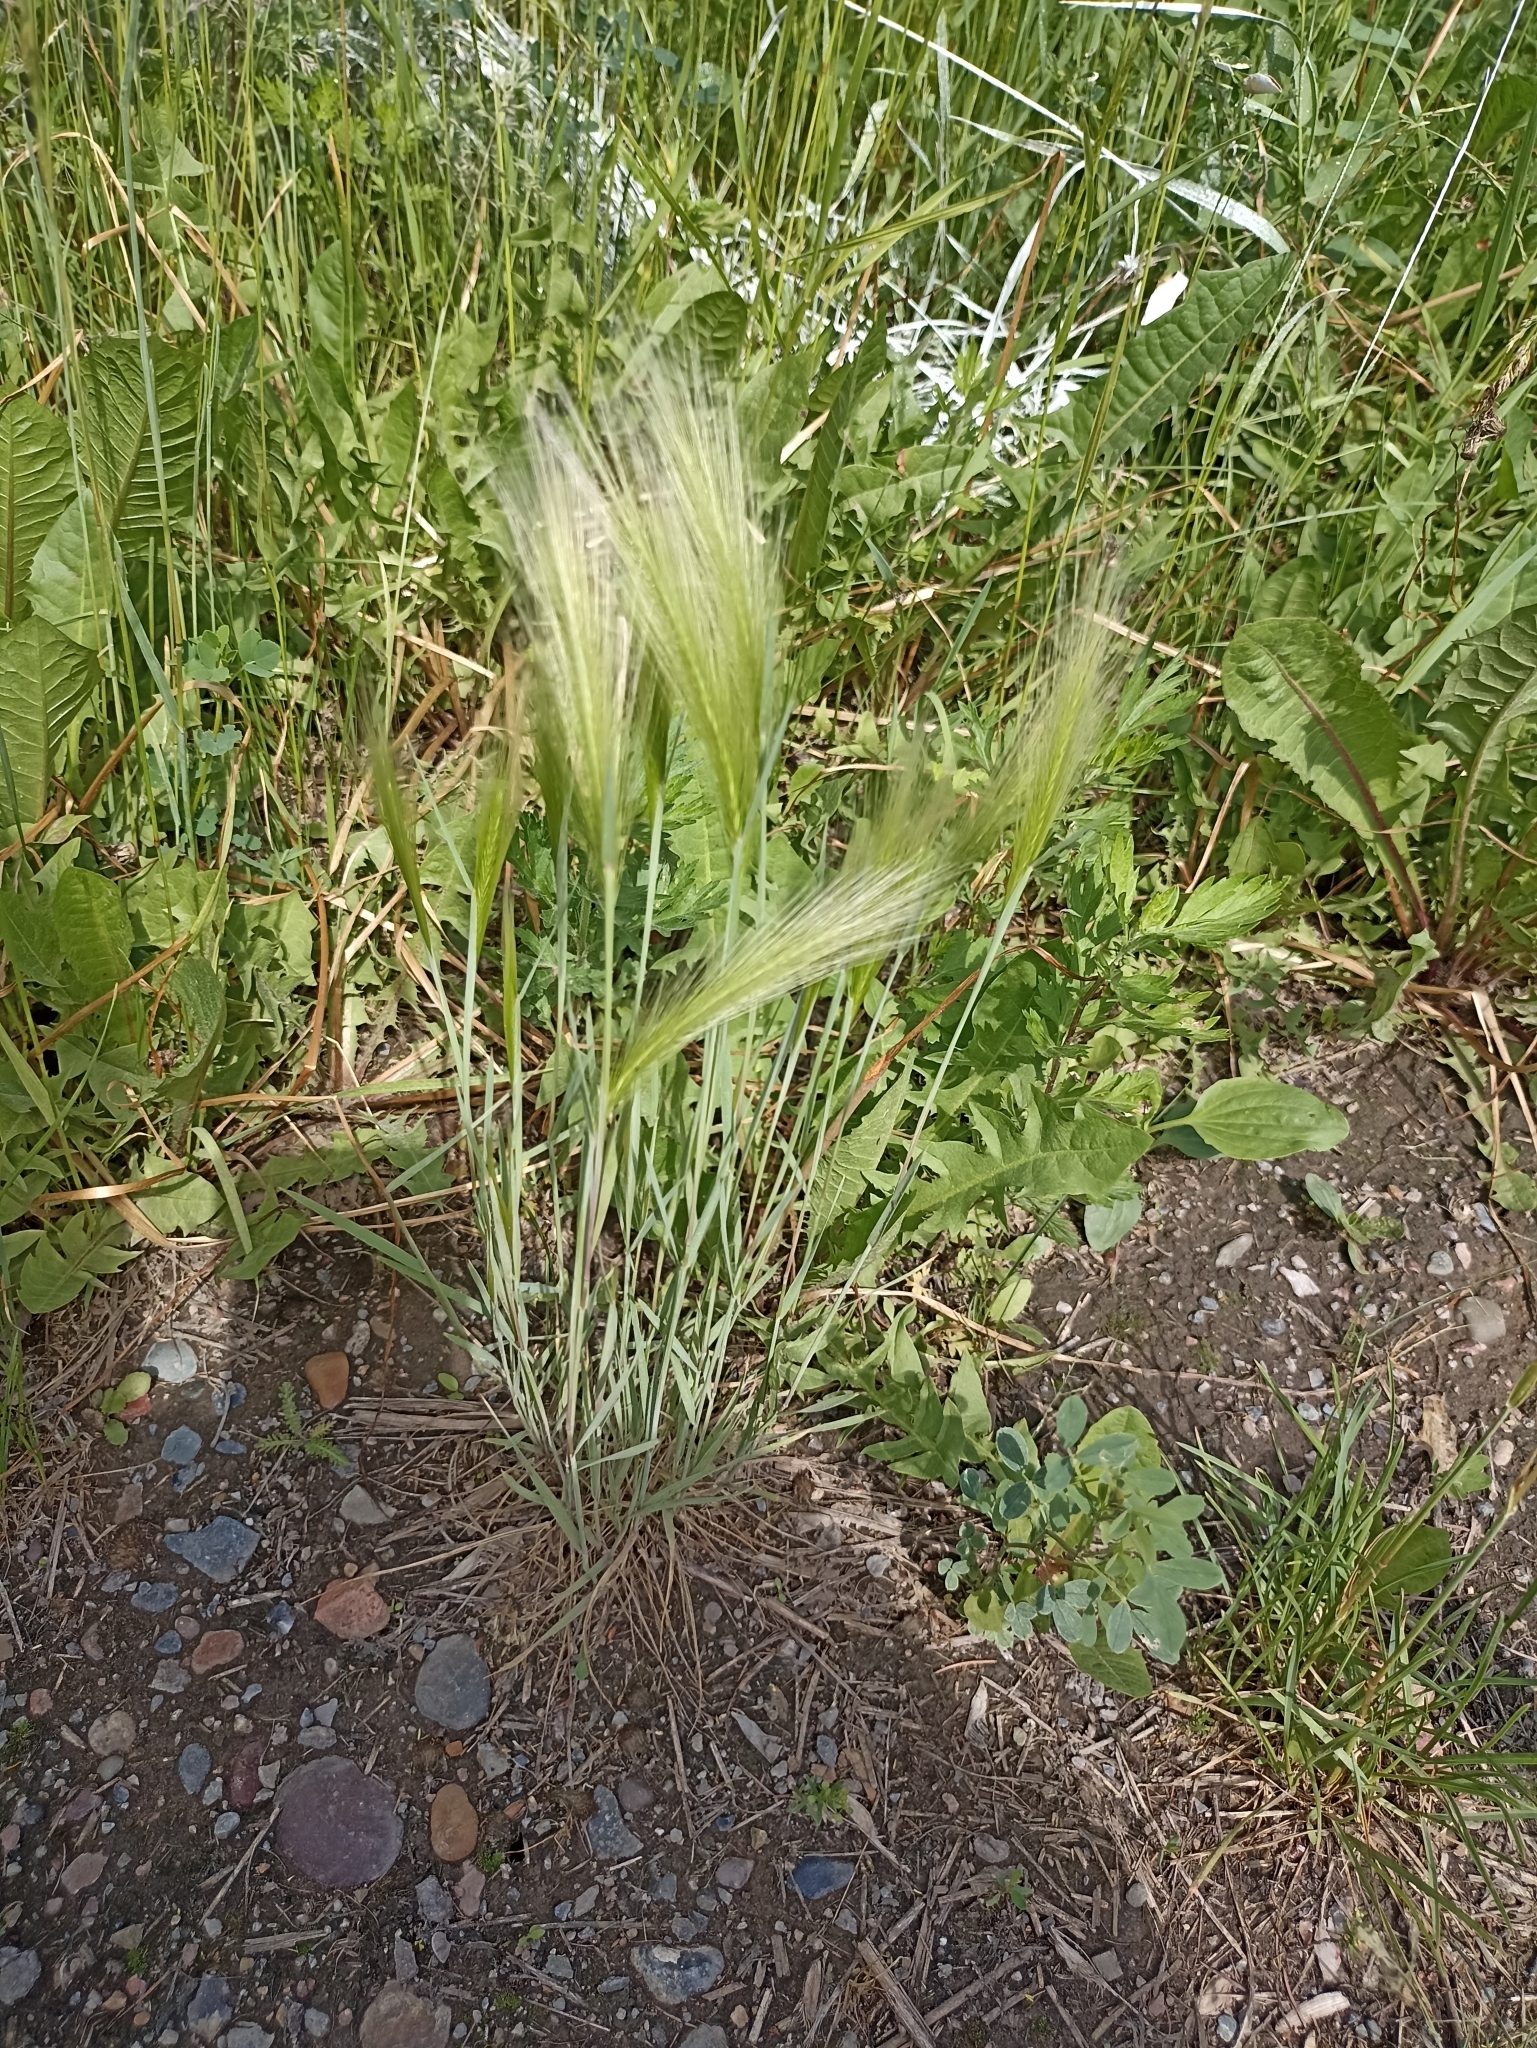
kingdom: Plantae
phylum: Tracheophyta
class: Liliopsida
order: Poales
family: Poaceae
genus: Hordeum
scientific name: Hordeum jubatum
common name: Foxtail barley
